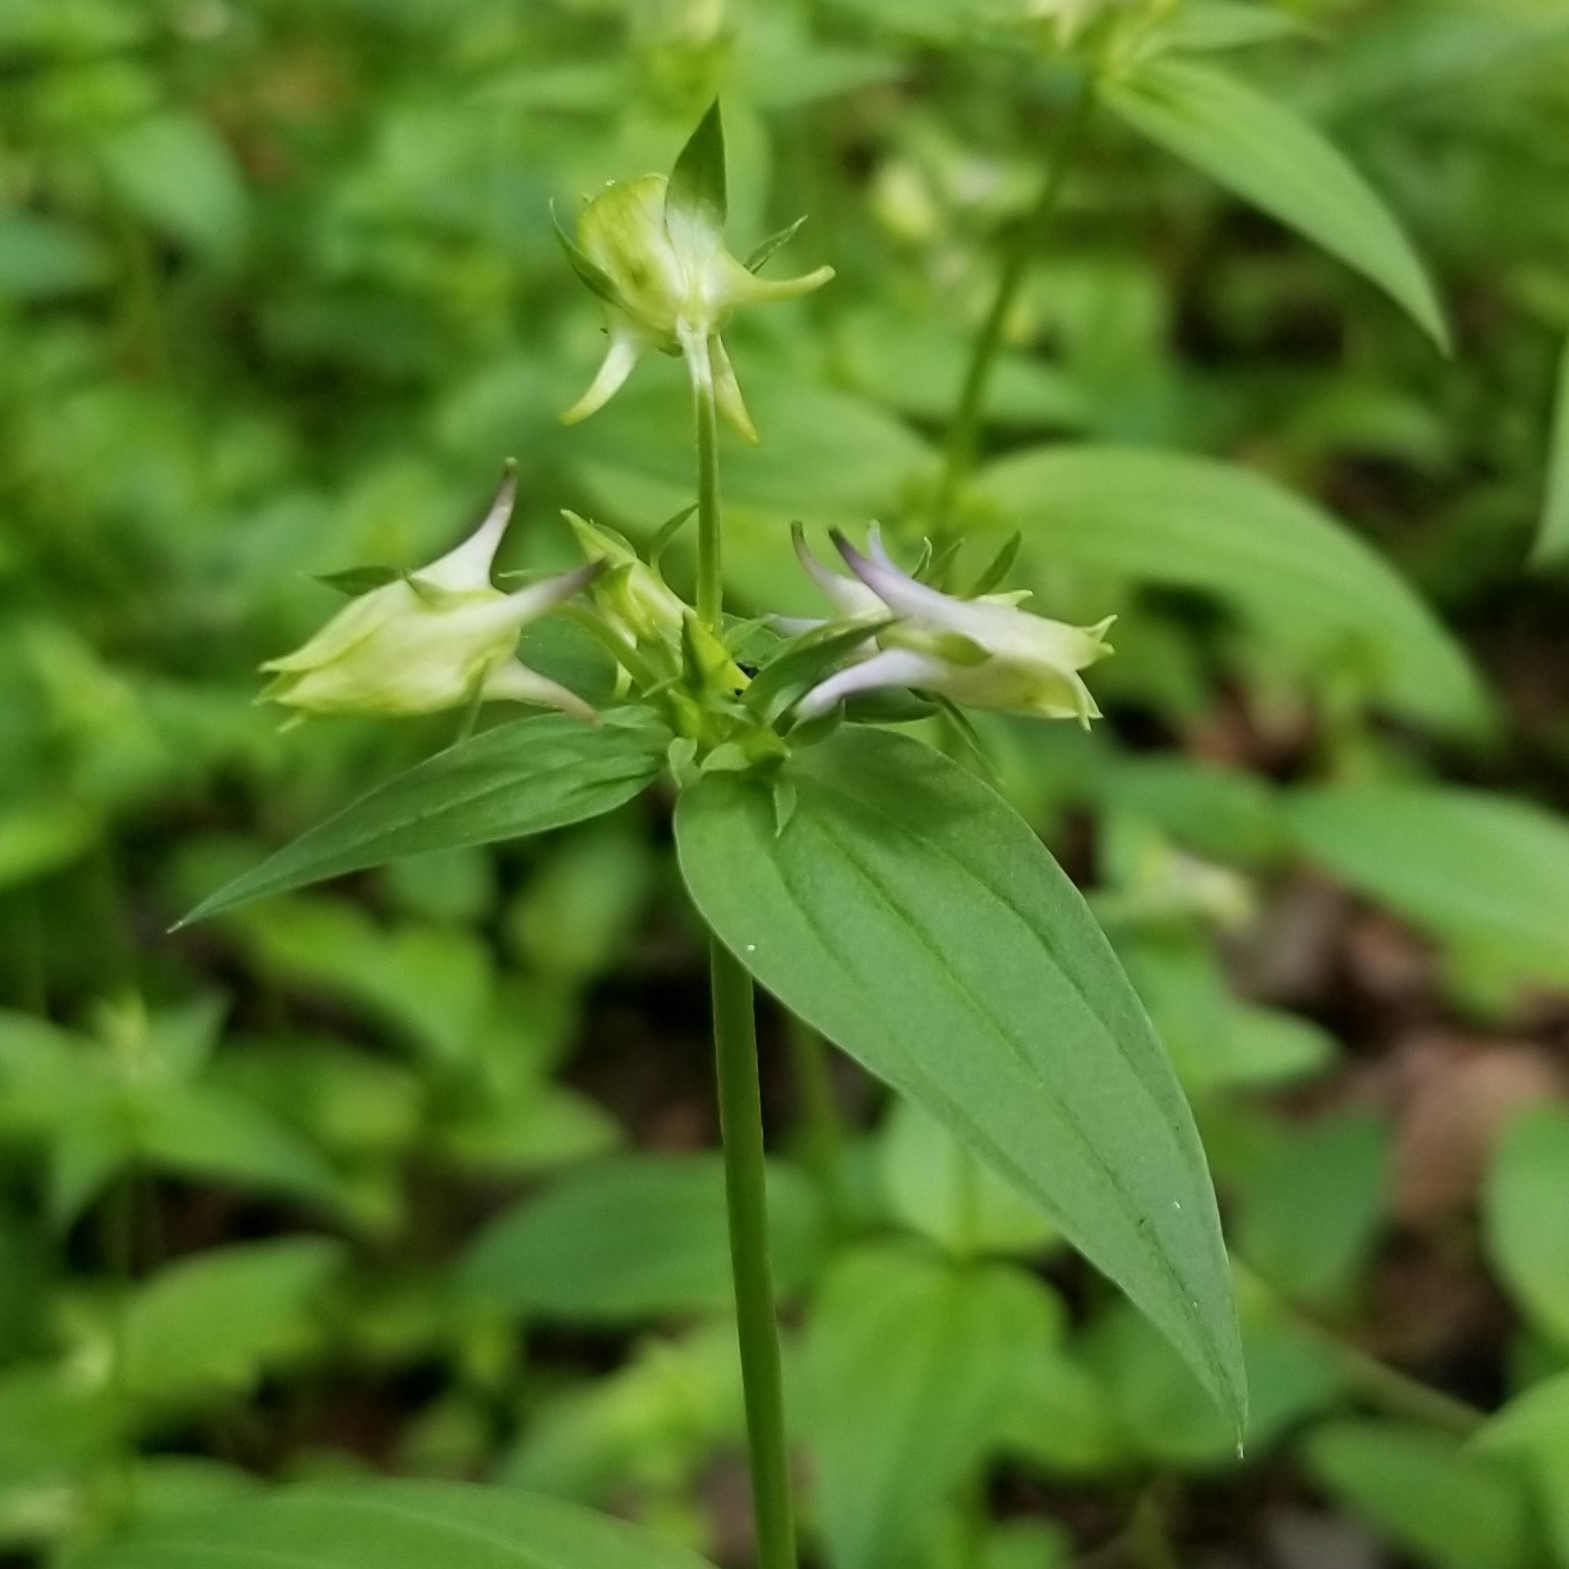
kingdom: Plantae
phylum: Tracheophyta
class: Magnoliopsida
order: Gentianales
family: Gentianaceae
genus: Halenia
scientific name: Halenia deflexa
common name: American spurred gentian
